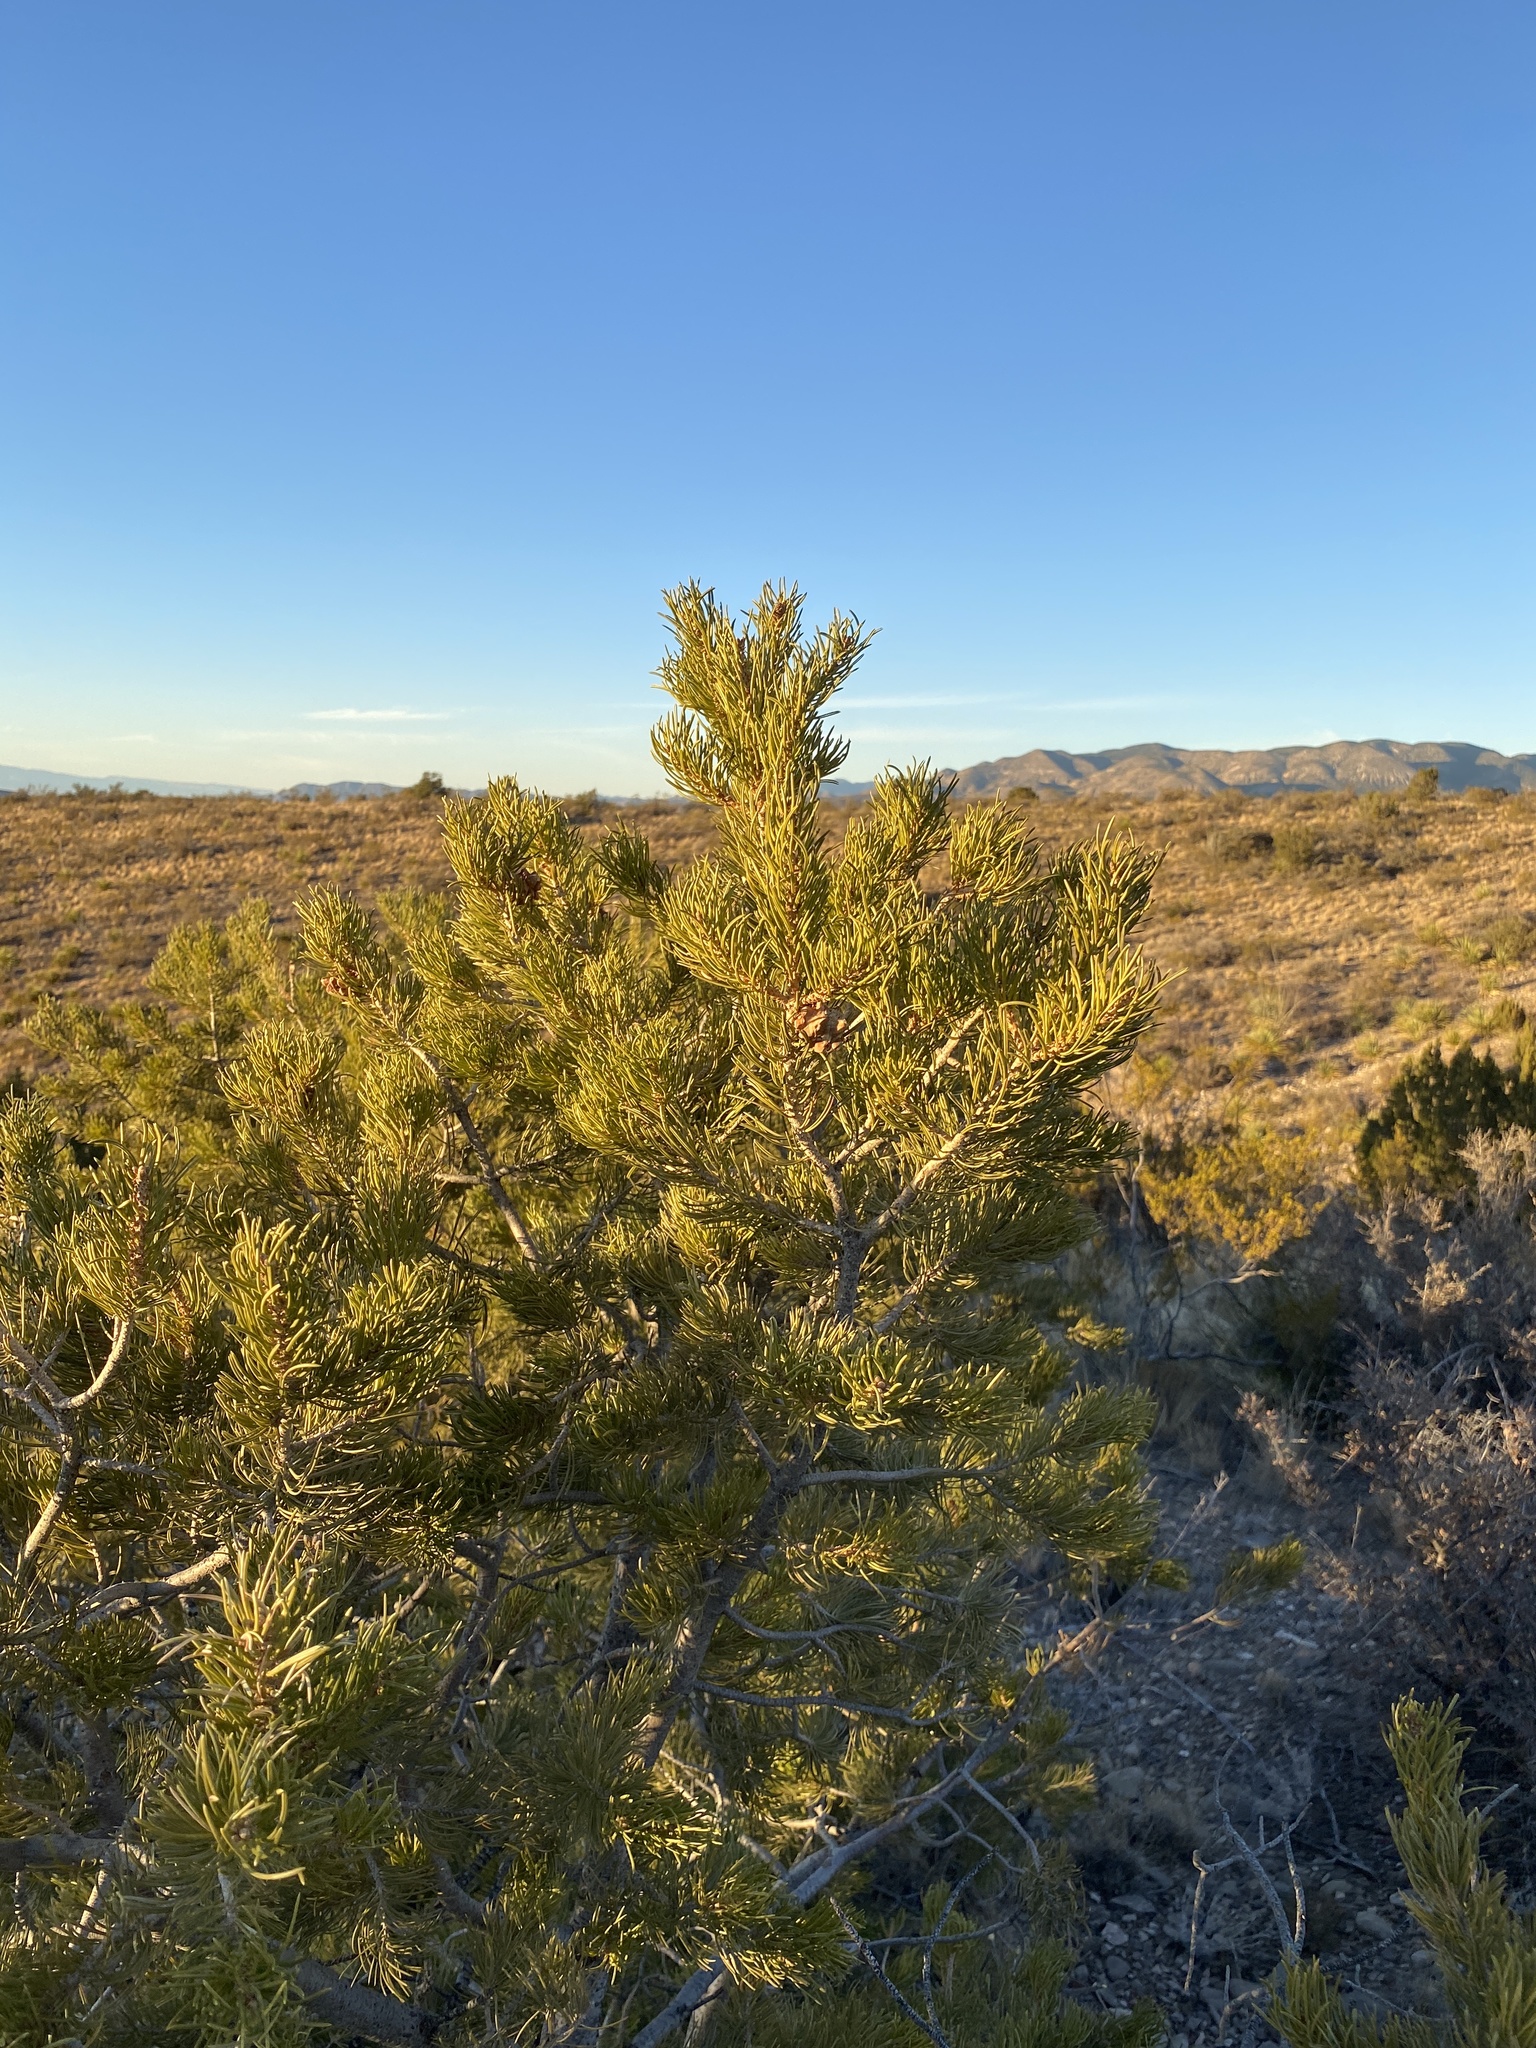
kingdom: Plantae
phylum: Tracheophyta
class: Pinopsida
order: Pinales
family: Pinaceae
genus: Pinus
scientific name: Pinus edulis
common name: Colorado pinyon
